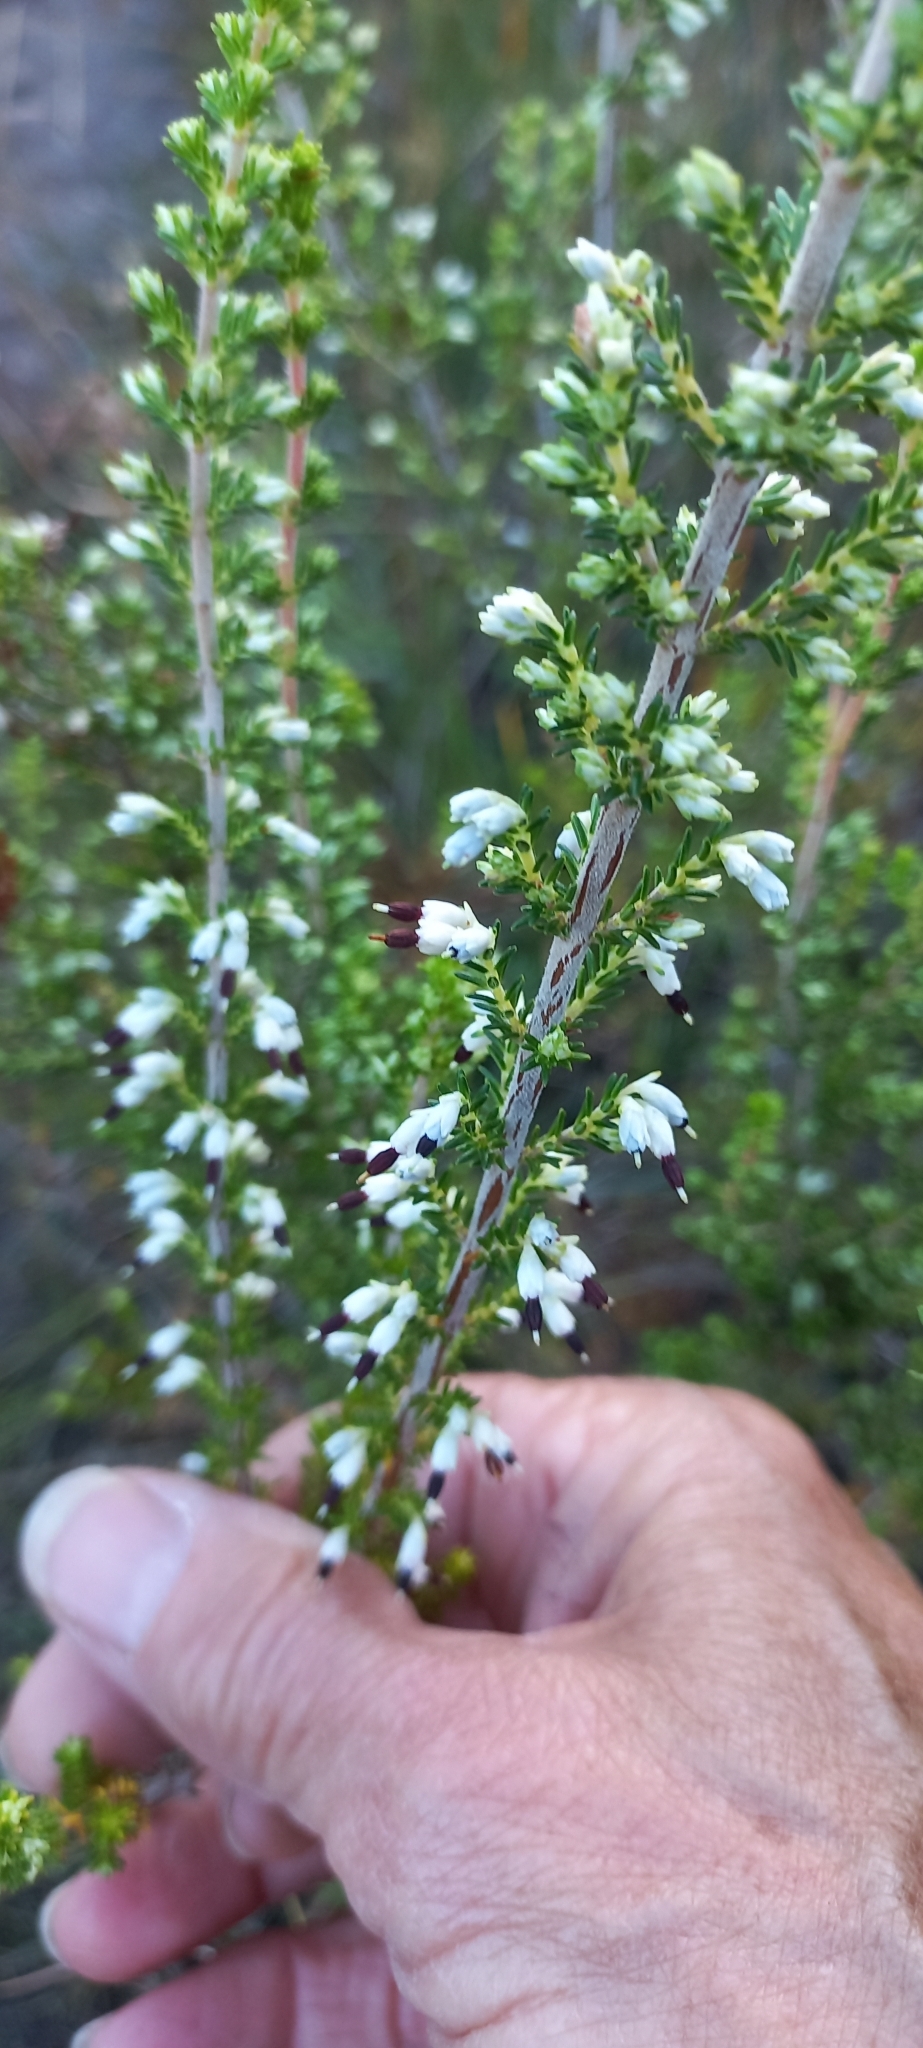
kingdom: Plantae
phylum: Tracheophyta
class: Magnoliopsida
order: Ericales
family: Ericaceae
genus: Erica
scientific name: Erica imbricata
